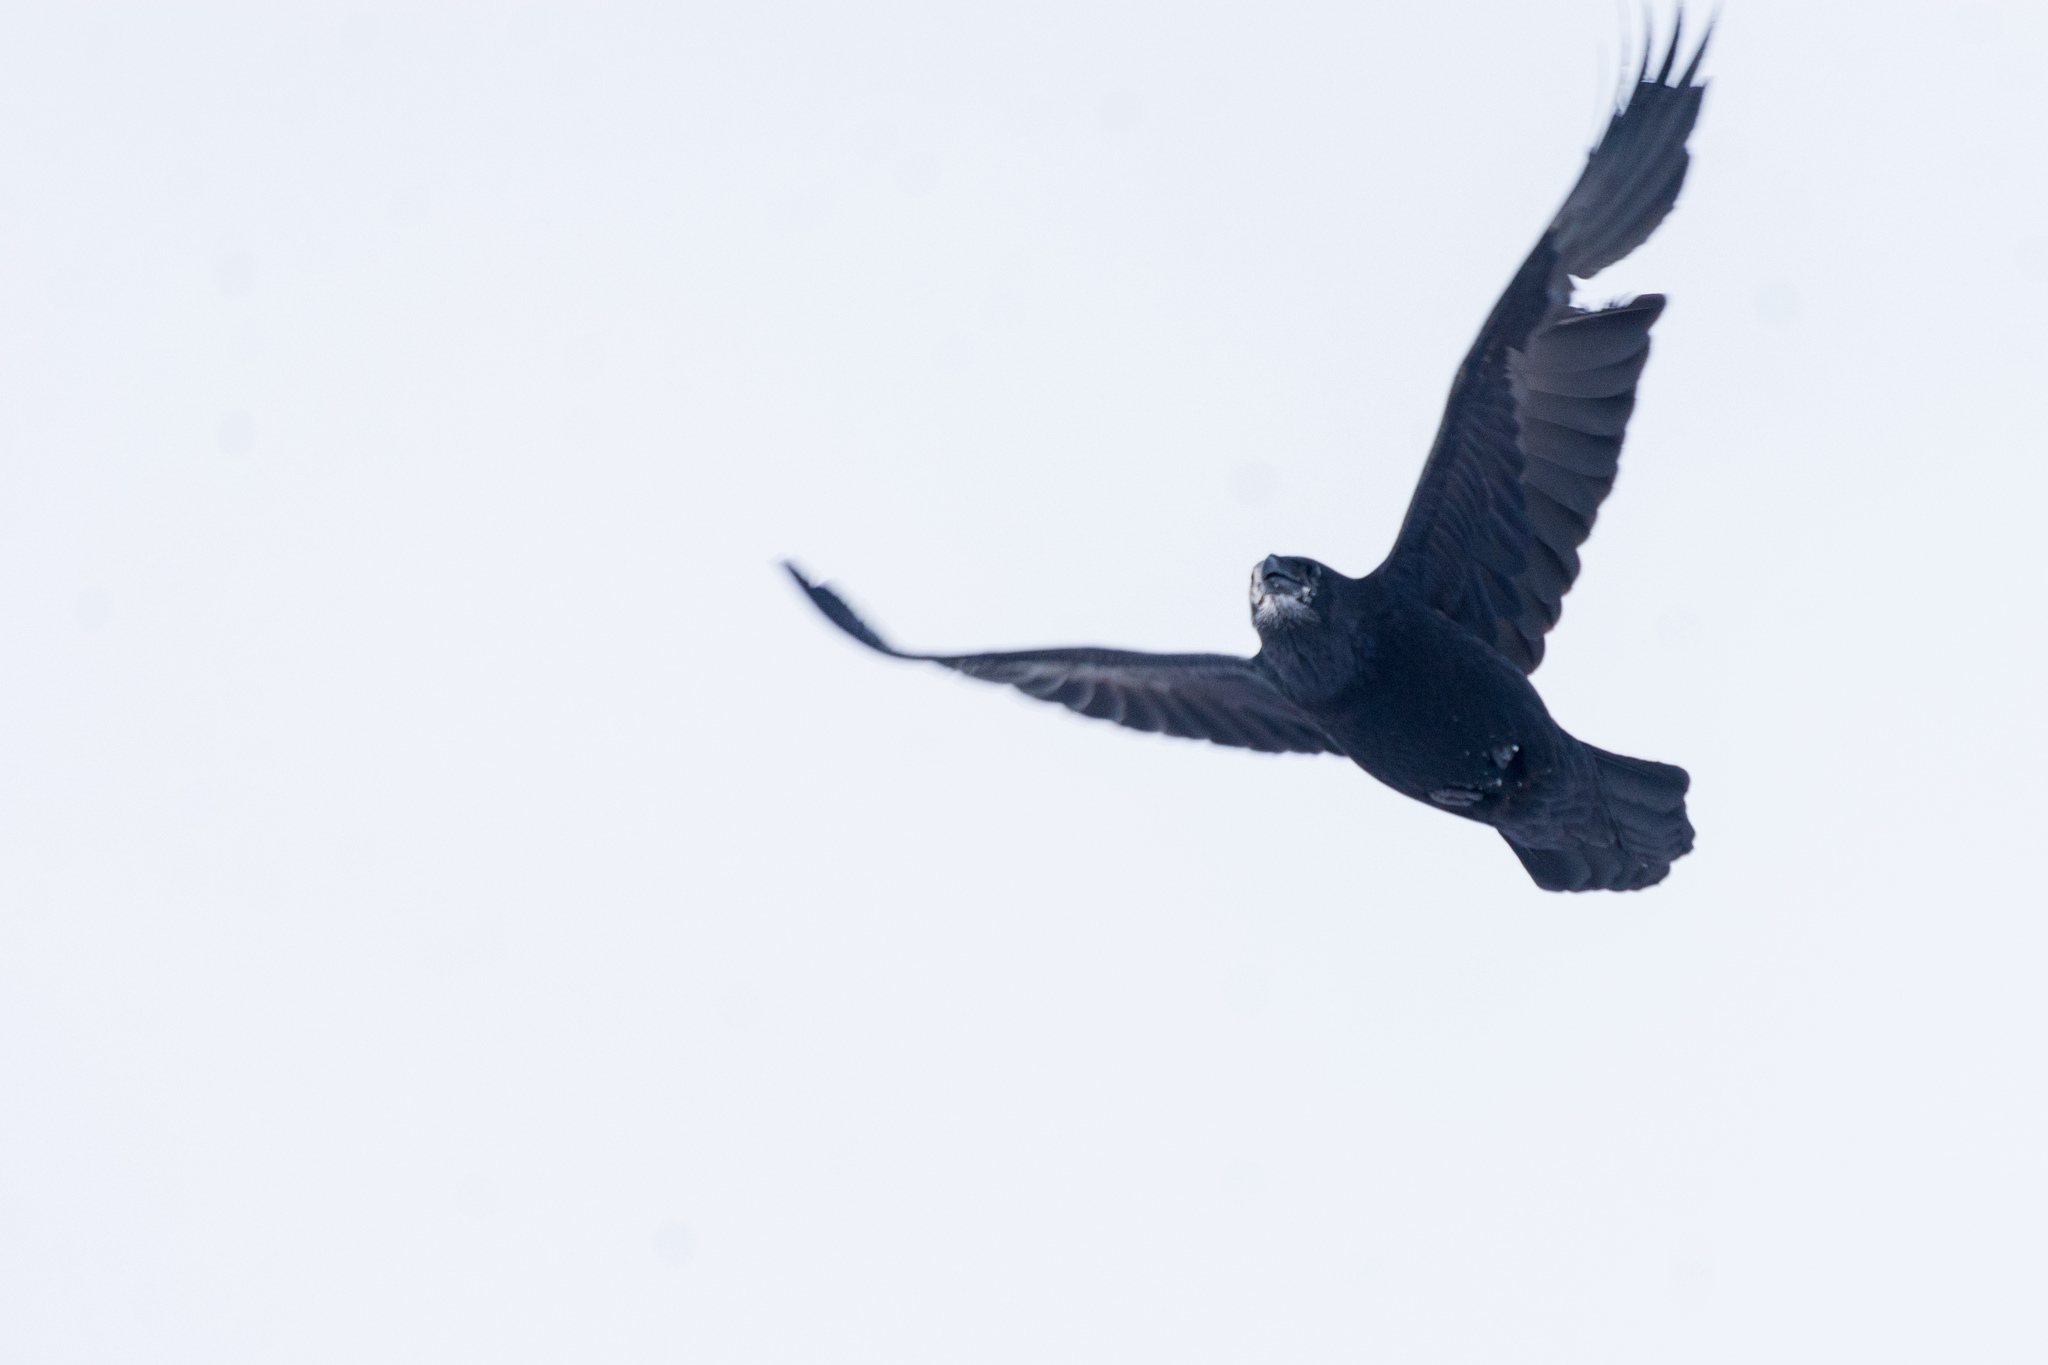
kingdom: Animalia
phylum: Chordata
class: Aves
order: Passeriformes
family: Corvidae
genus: Corvus
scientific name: Corvus corax
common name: Common raven
